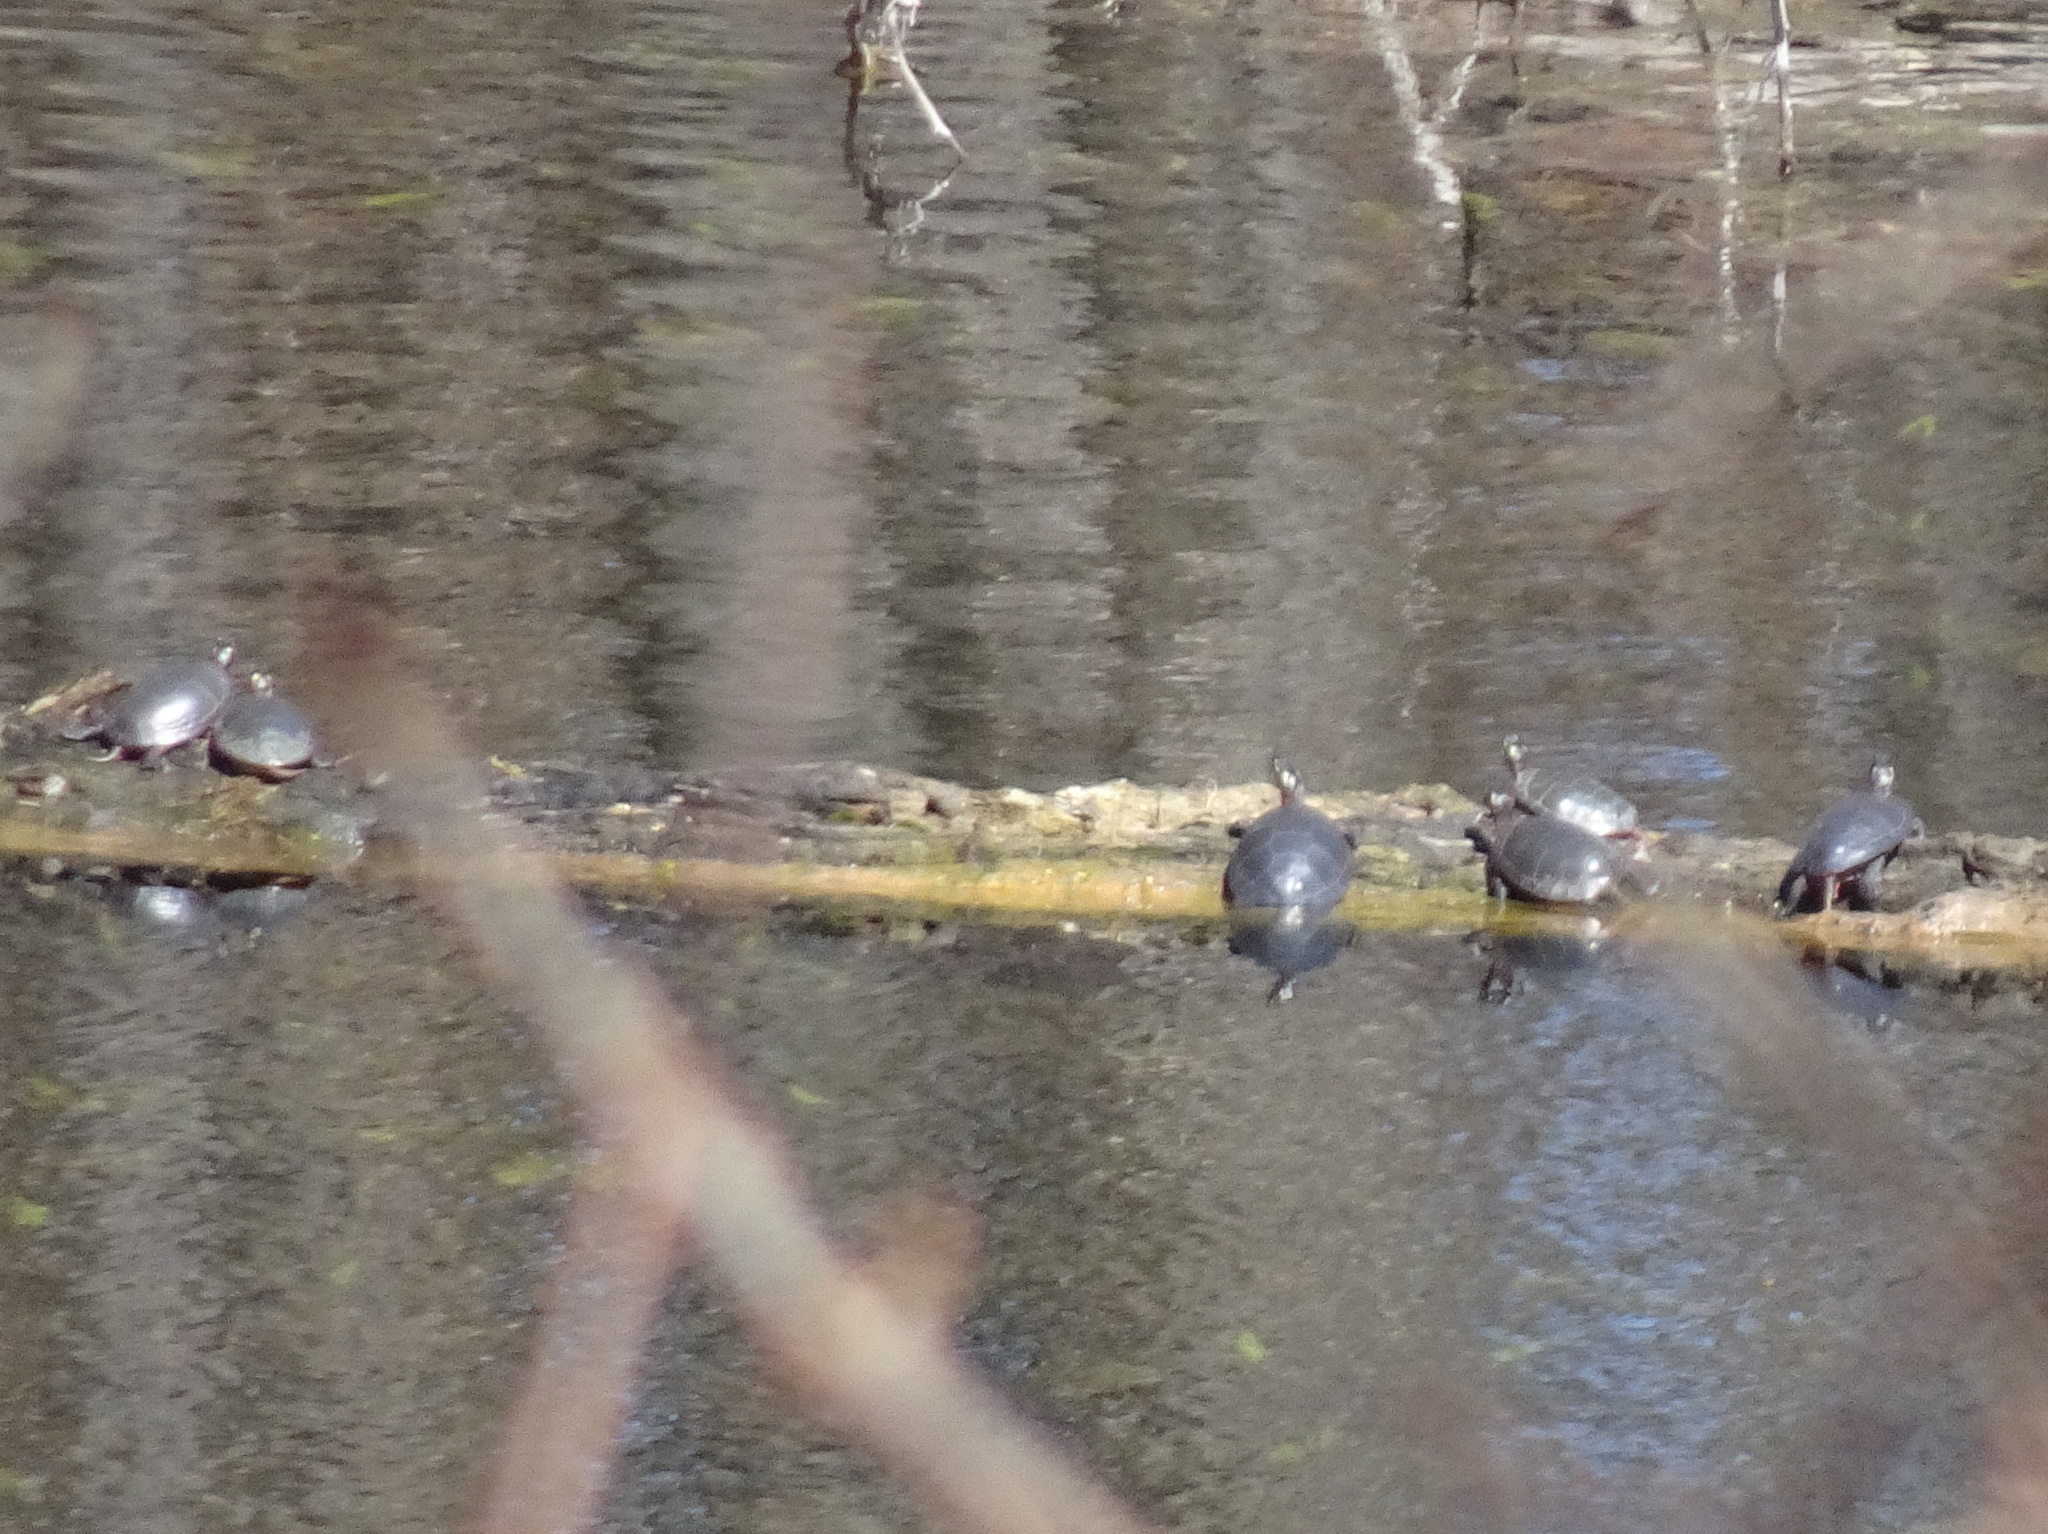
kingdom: Animalia
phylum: Chordata
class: Testudines
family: Emydidae
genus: Chrysemys
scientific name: Chrysemys picta
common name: Painted turtle
